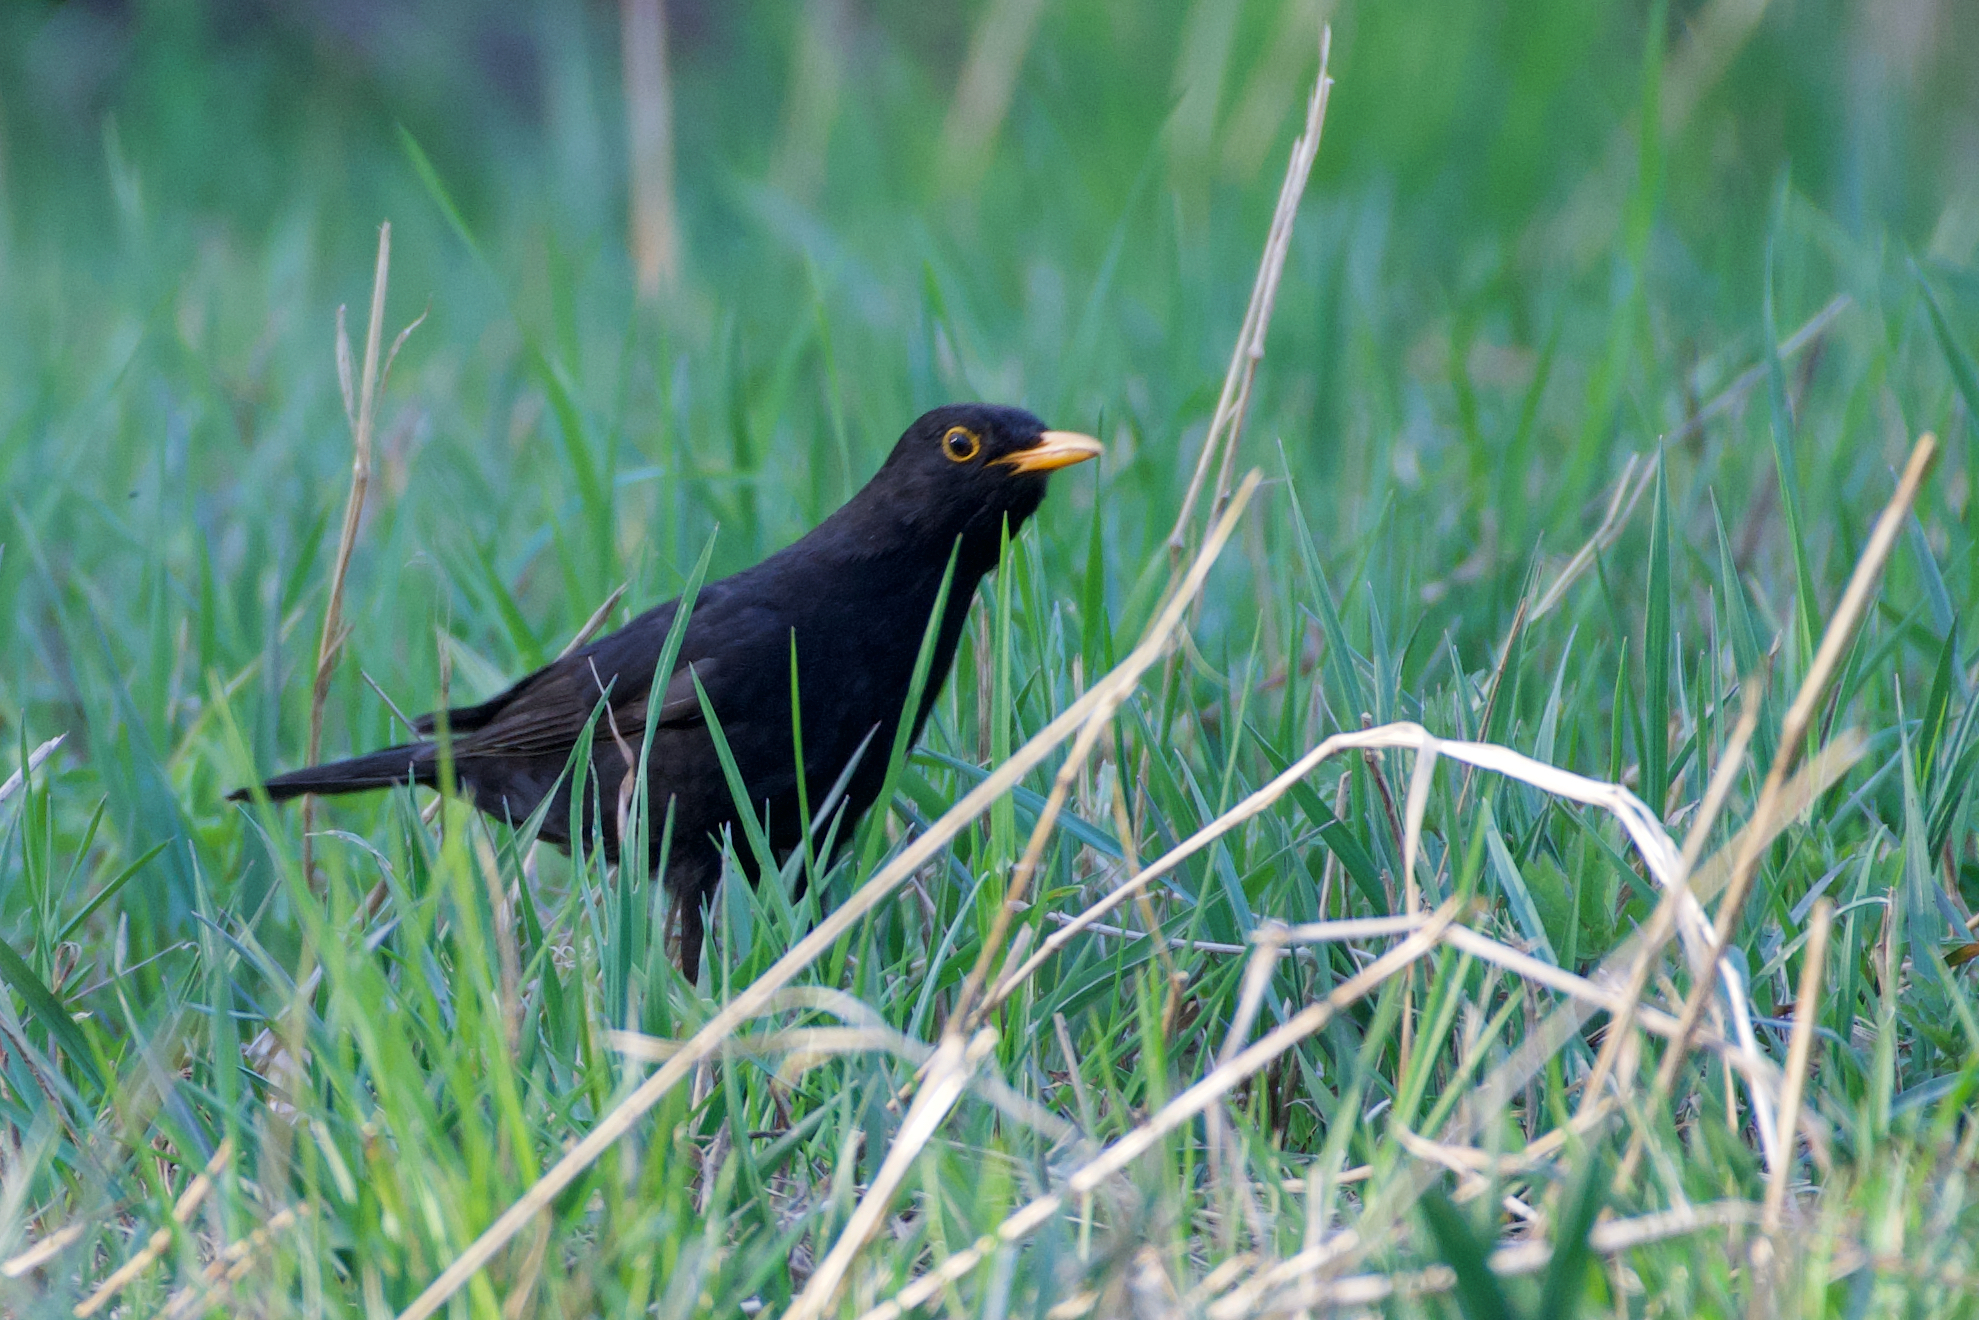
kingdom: Animalia
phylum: Chordata
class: Aves
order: Passeriformes
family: Turdidae
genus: Turdus
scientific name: Turdus merula
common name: Common blackbird
